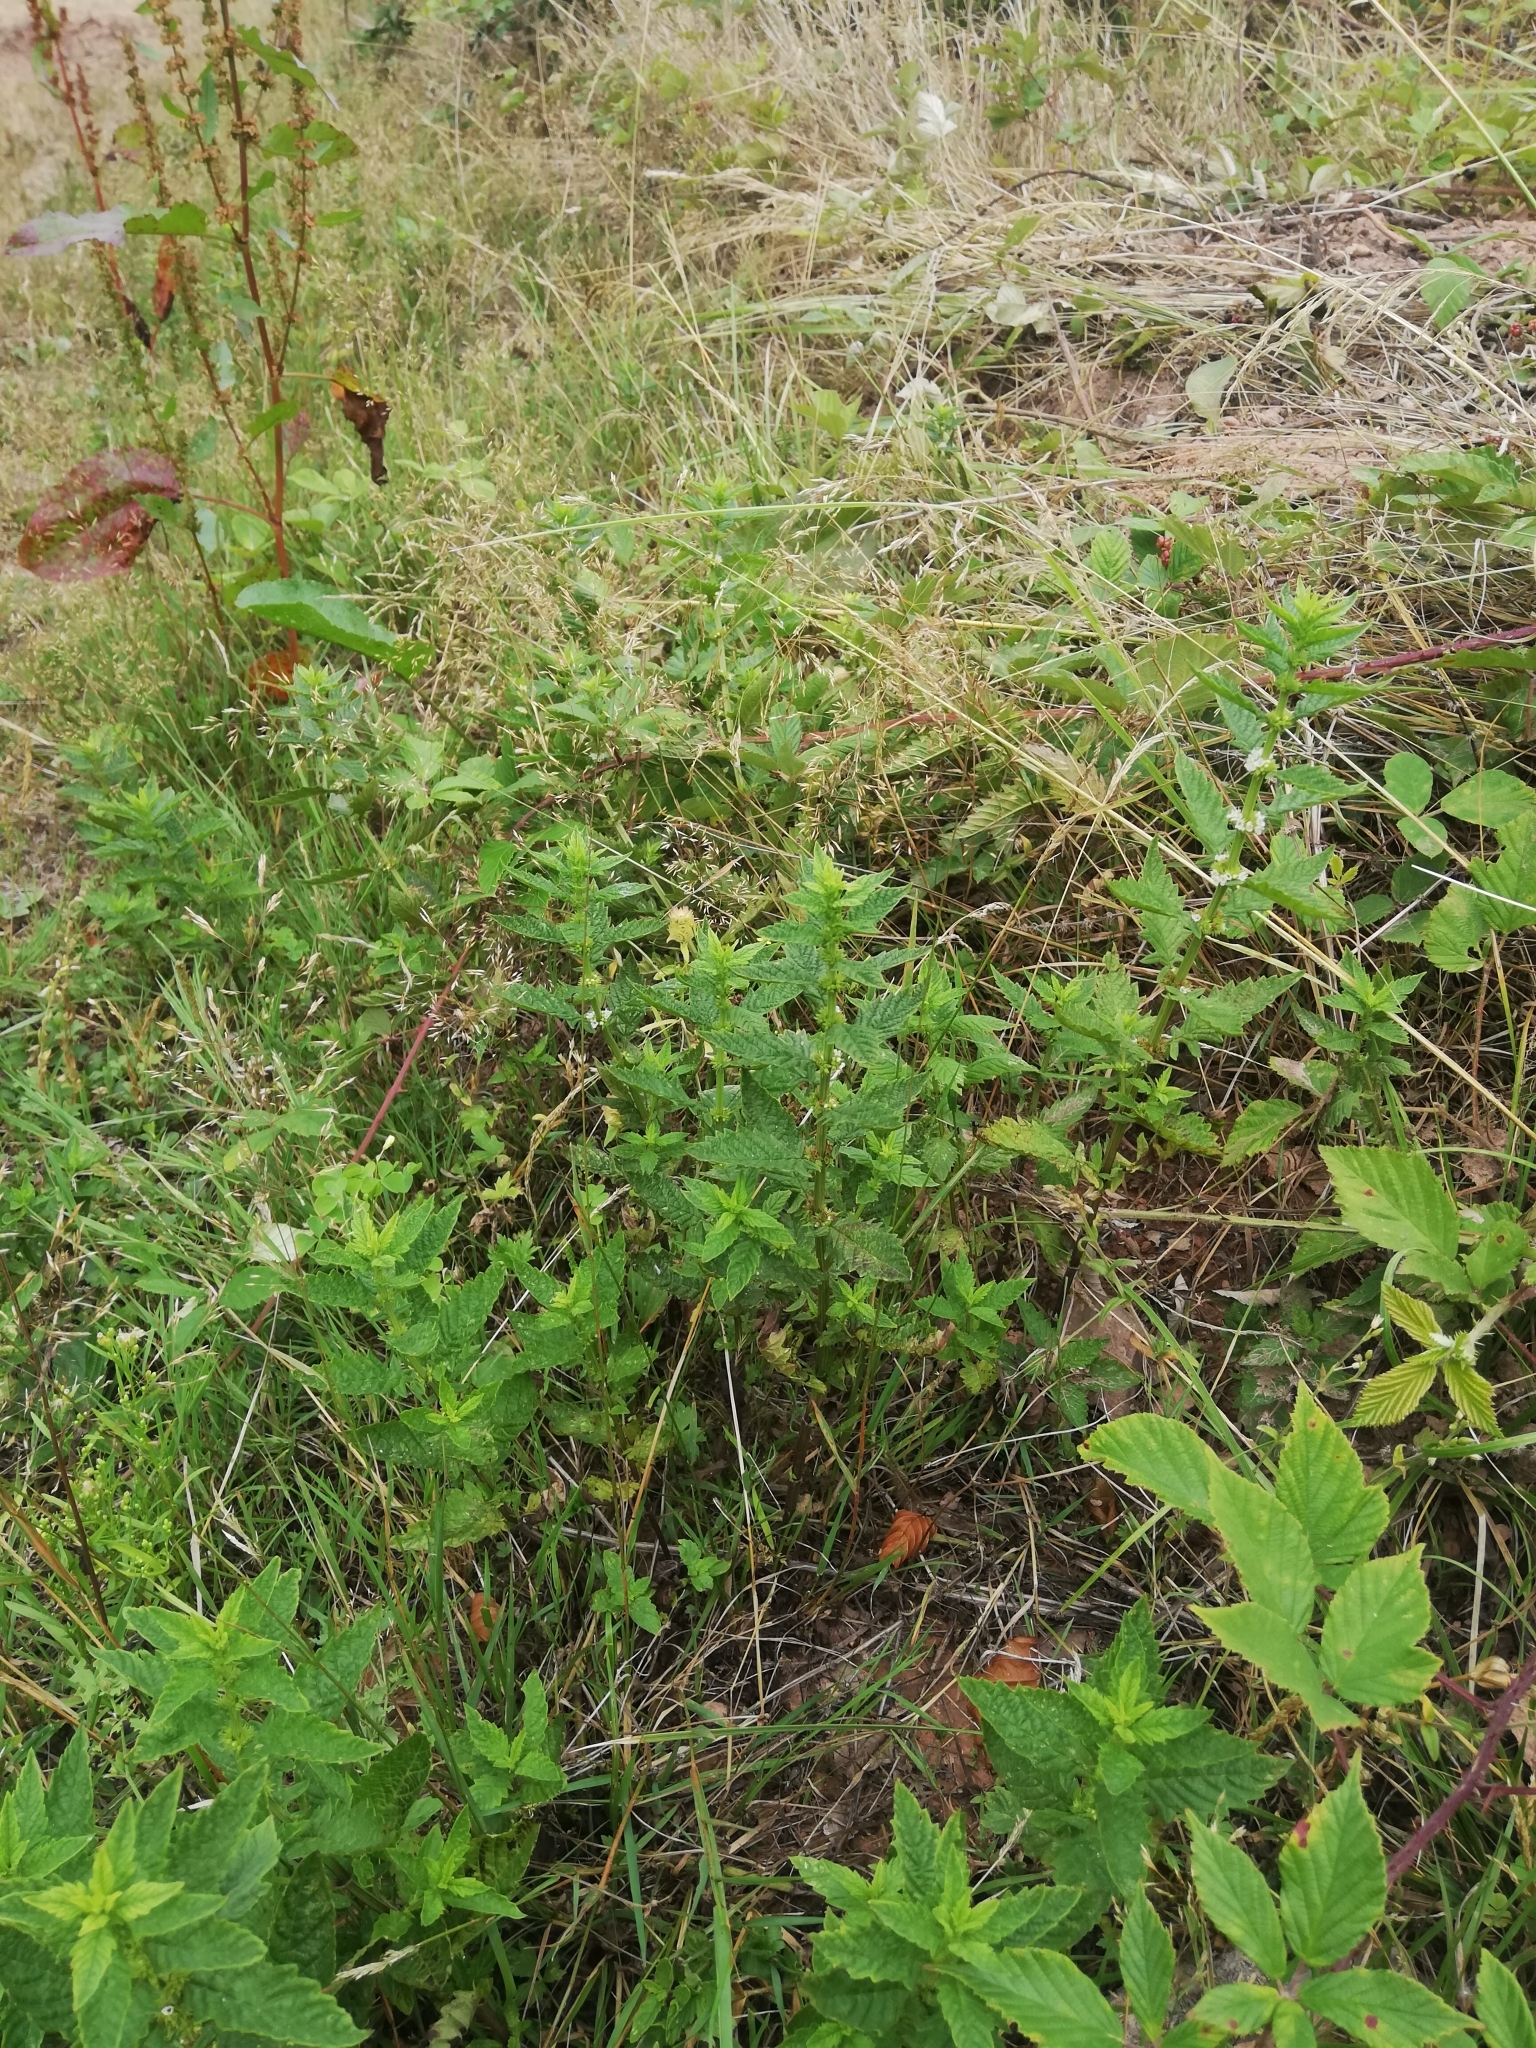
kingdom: Plantae
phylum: Tracheophyta
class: Magnoliopsida
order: Lamiales
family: Lamiaceae
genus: Lycopus
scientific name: Lycopus europaeus
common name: European bugleweed
